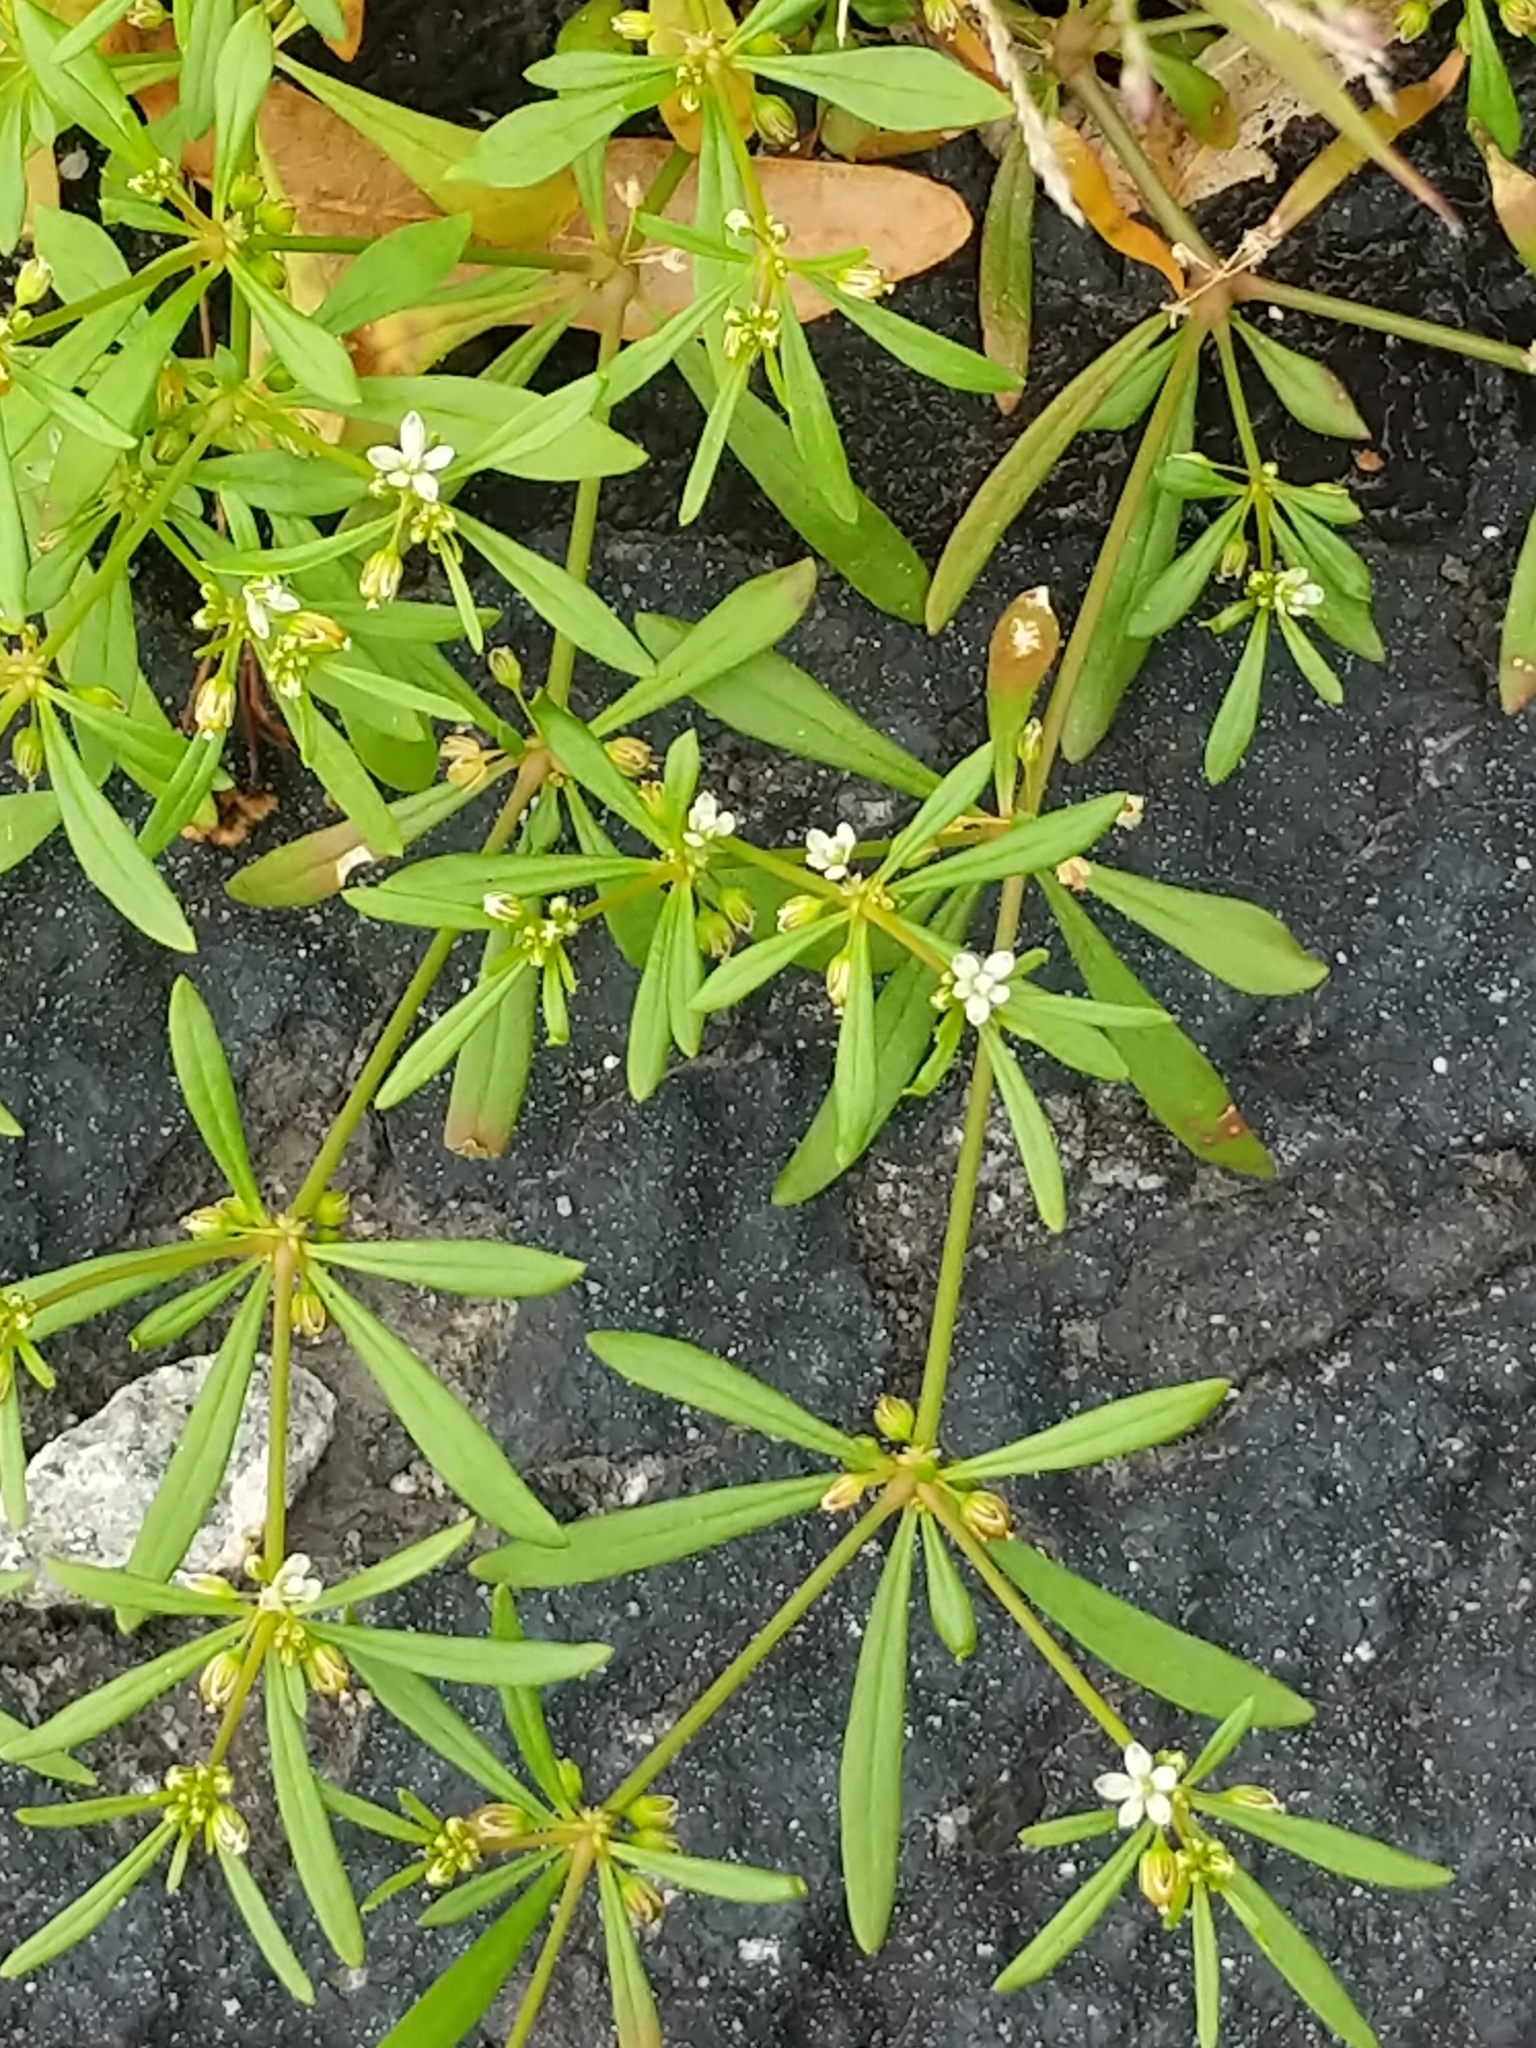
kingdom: Plantae
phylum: Tracheophyta
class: Magnoliopsida
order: Caryophyllales
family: Molluginaceae
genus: Mollugo
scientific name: Mollugo verticillata
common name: Green carpetweed
